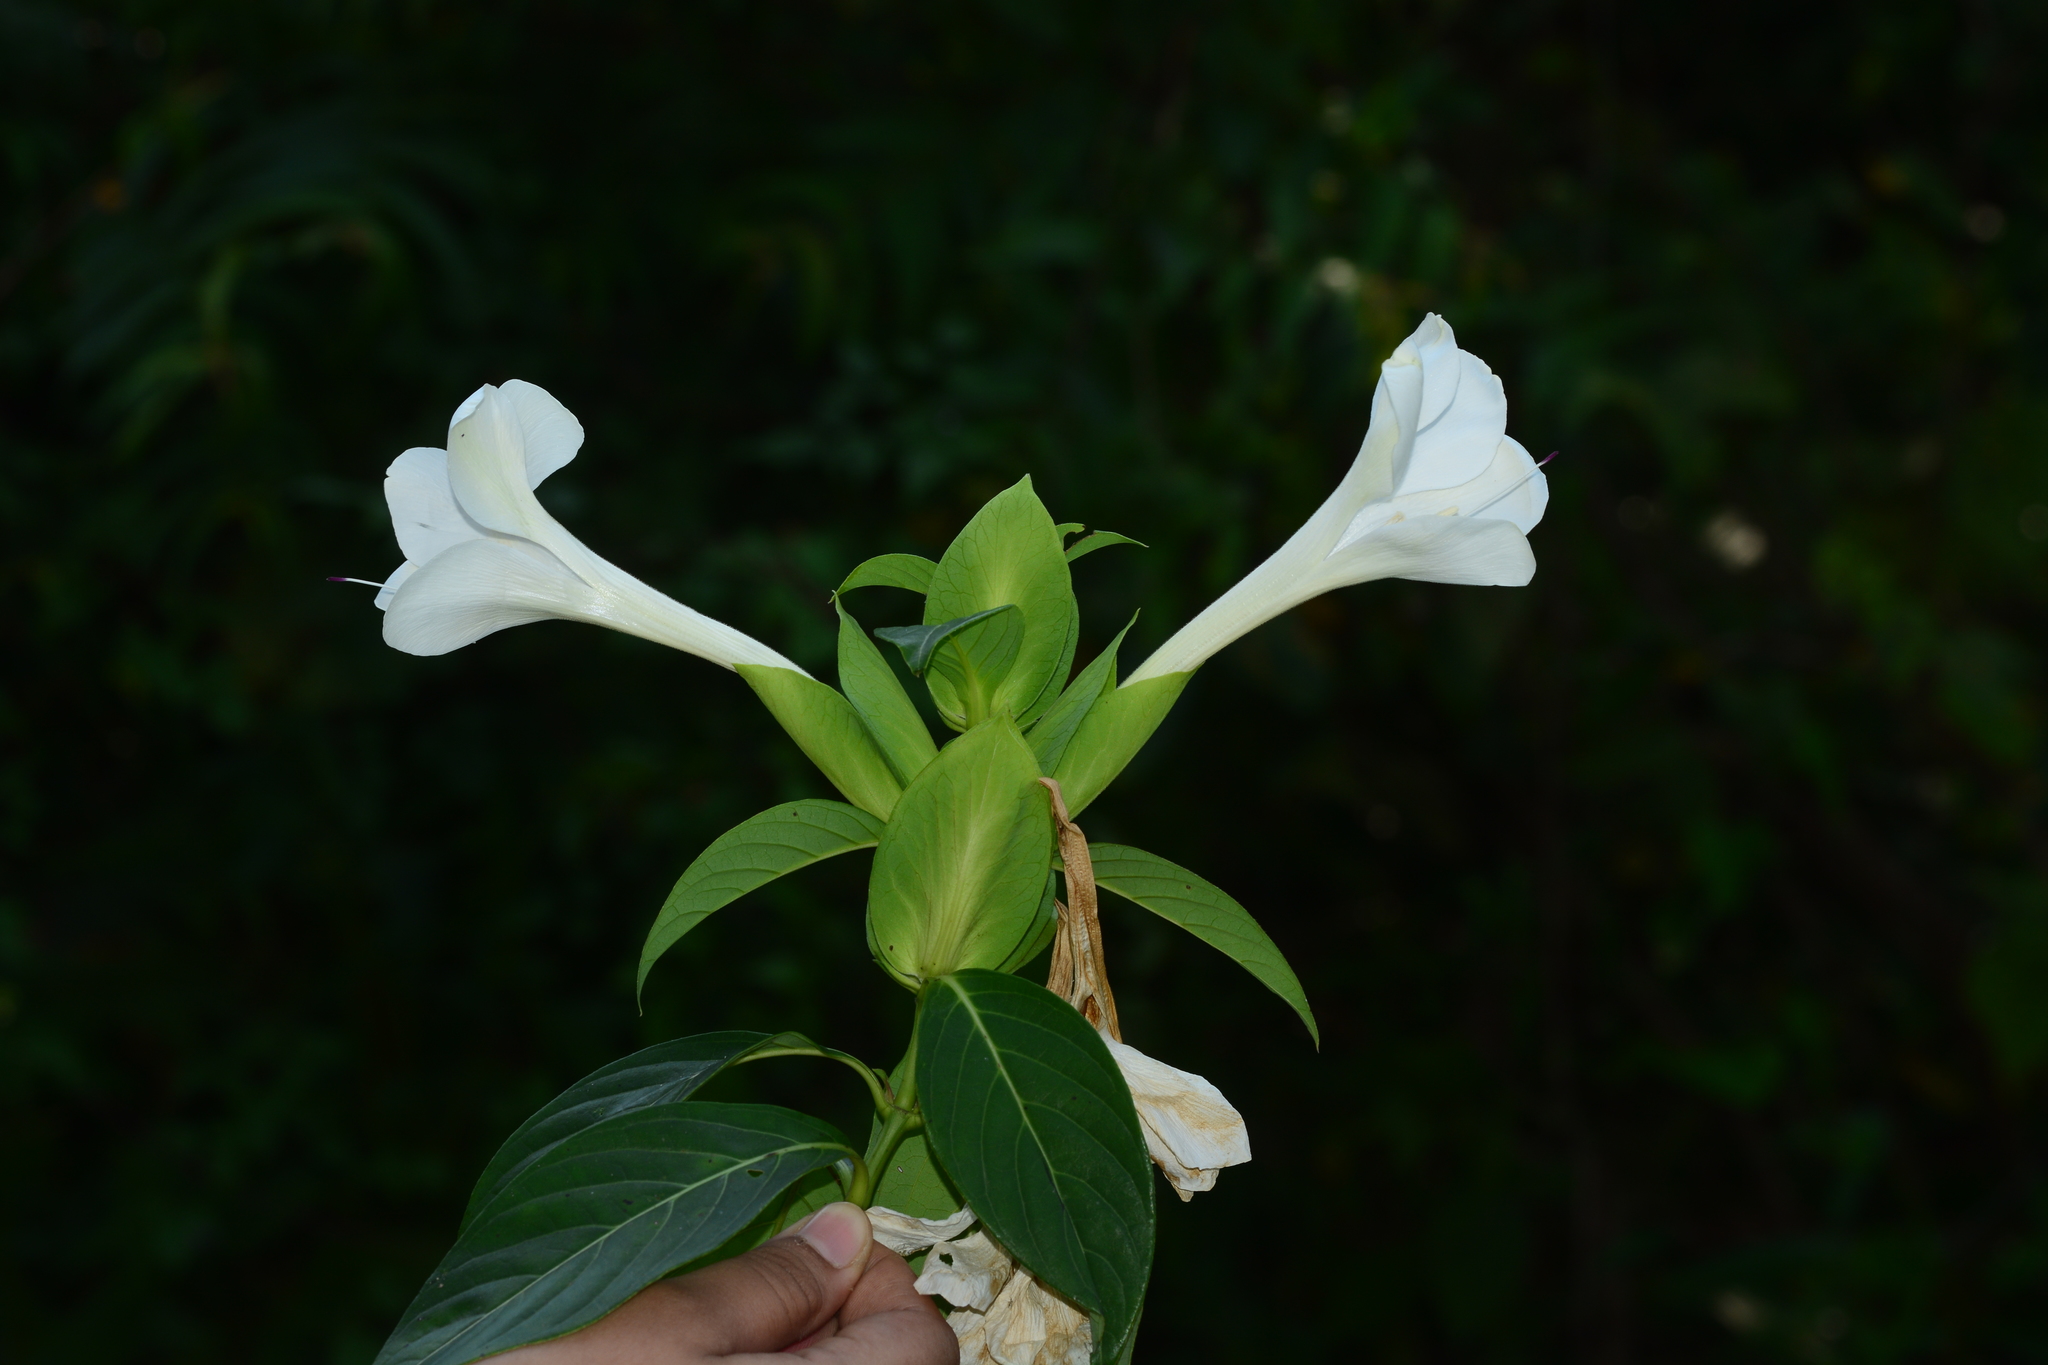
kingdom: Plantae
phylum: Tracheophyta
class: Magnoliopsida
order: Lamiales
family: Acanthaceae
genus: Barleria
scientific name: Barleria grandiflora
